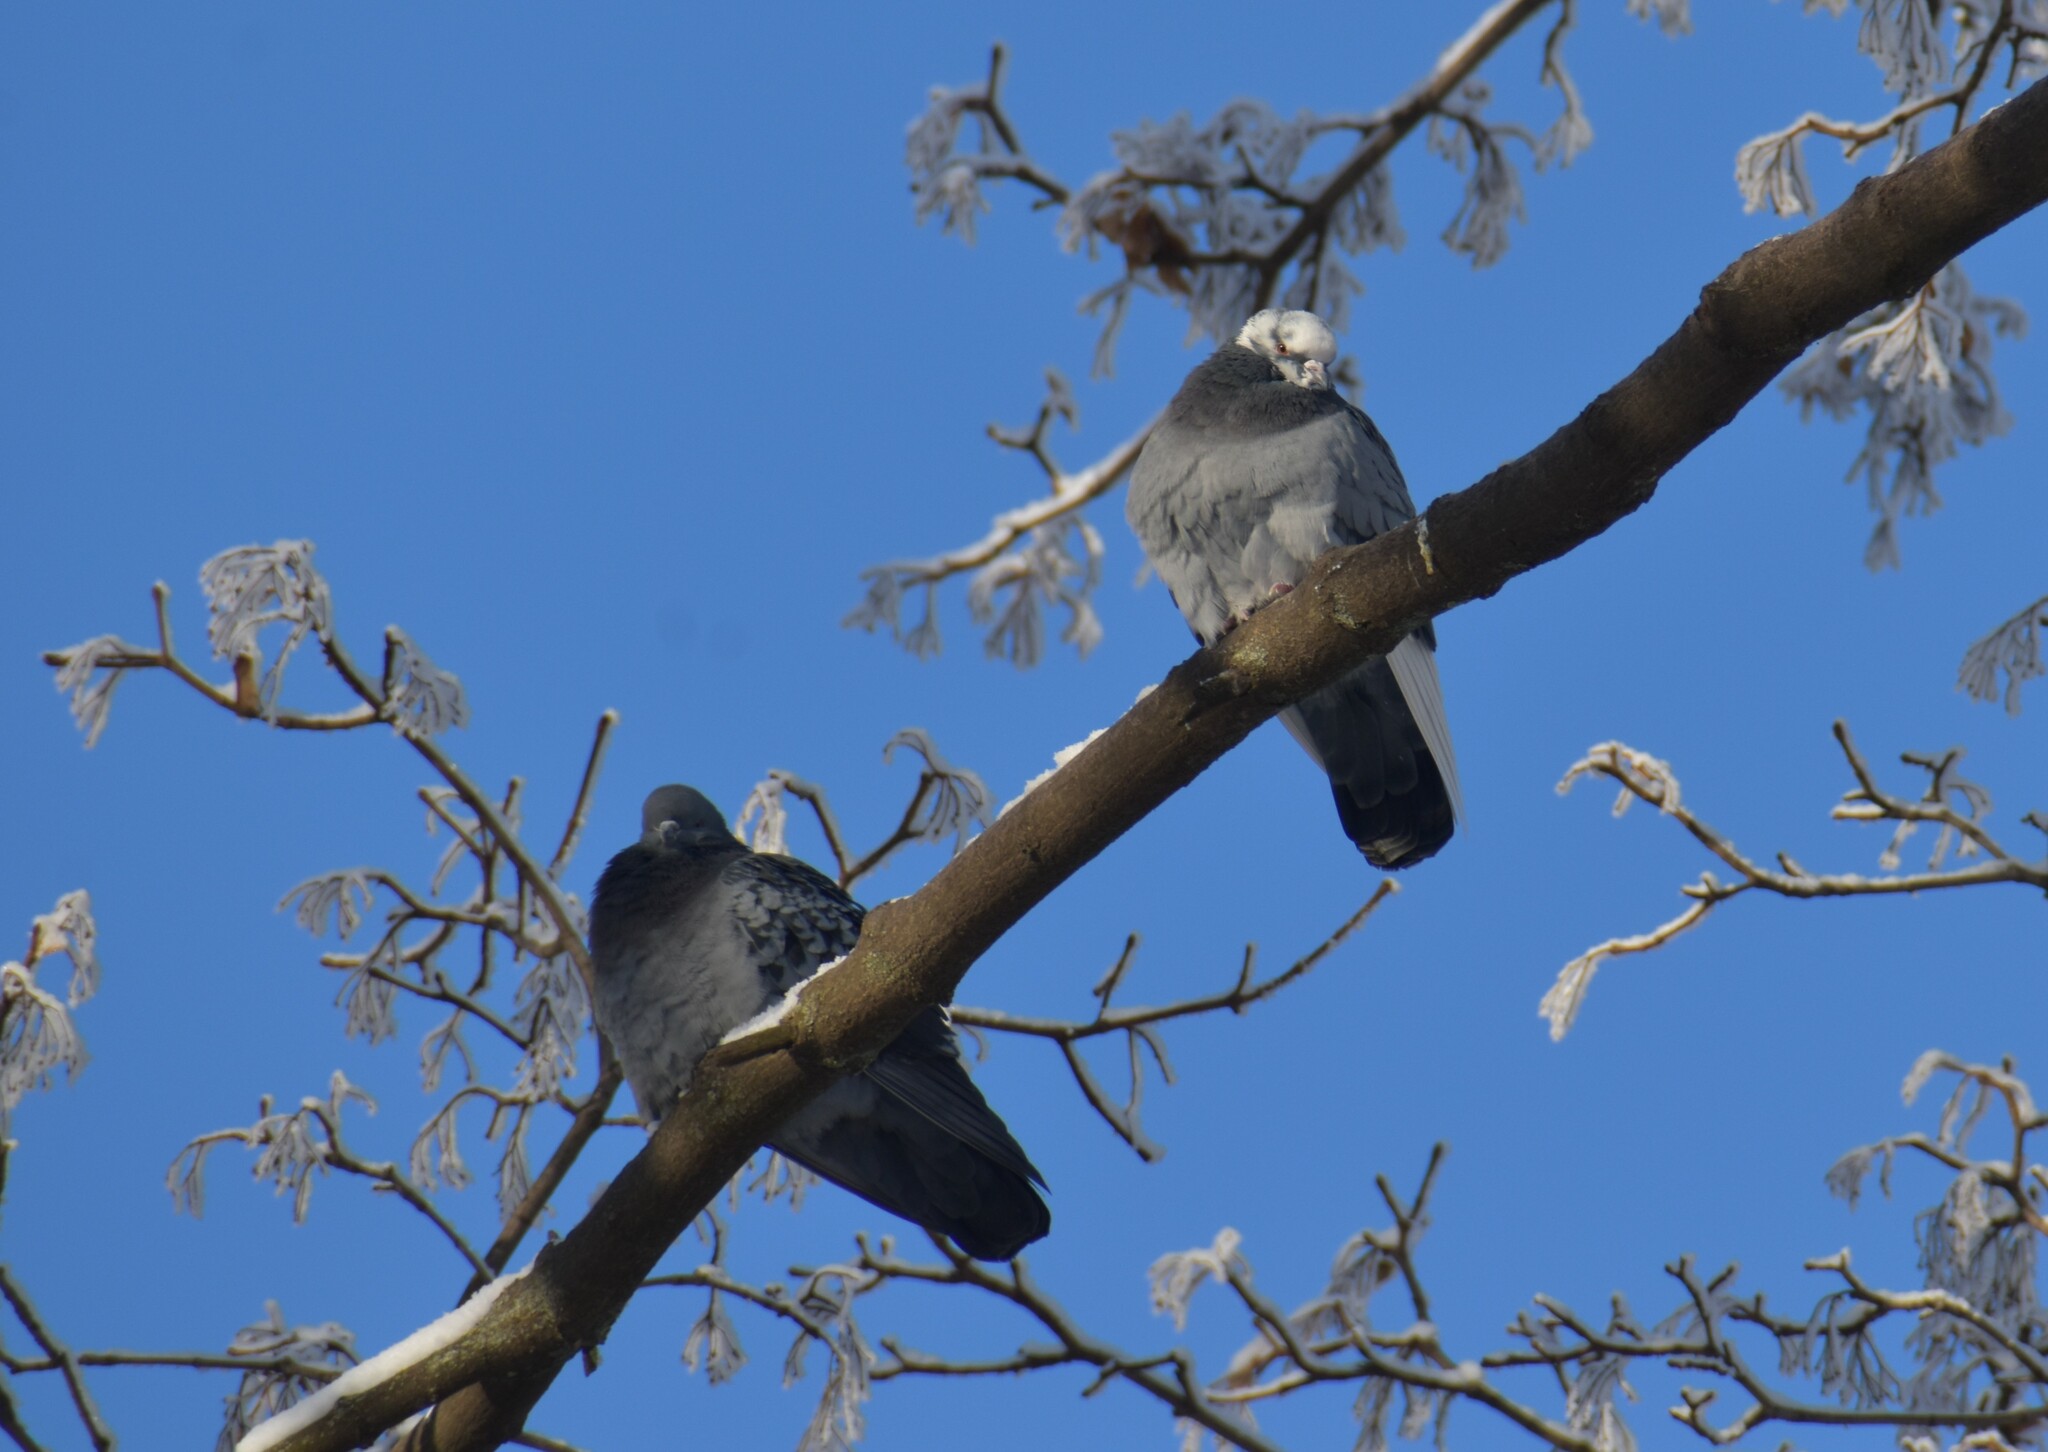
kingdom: Animalia
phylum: Chordata
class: Aves
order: Columbiformes
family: Columbidae
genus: Columba
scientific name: Columba livia
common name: Rock pigeon
